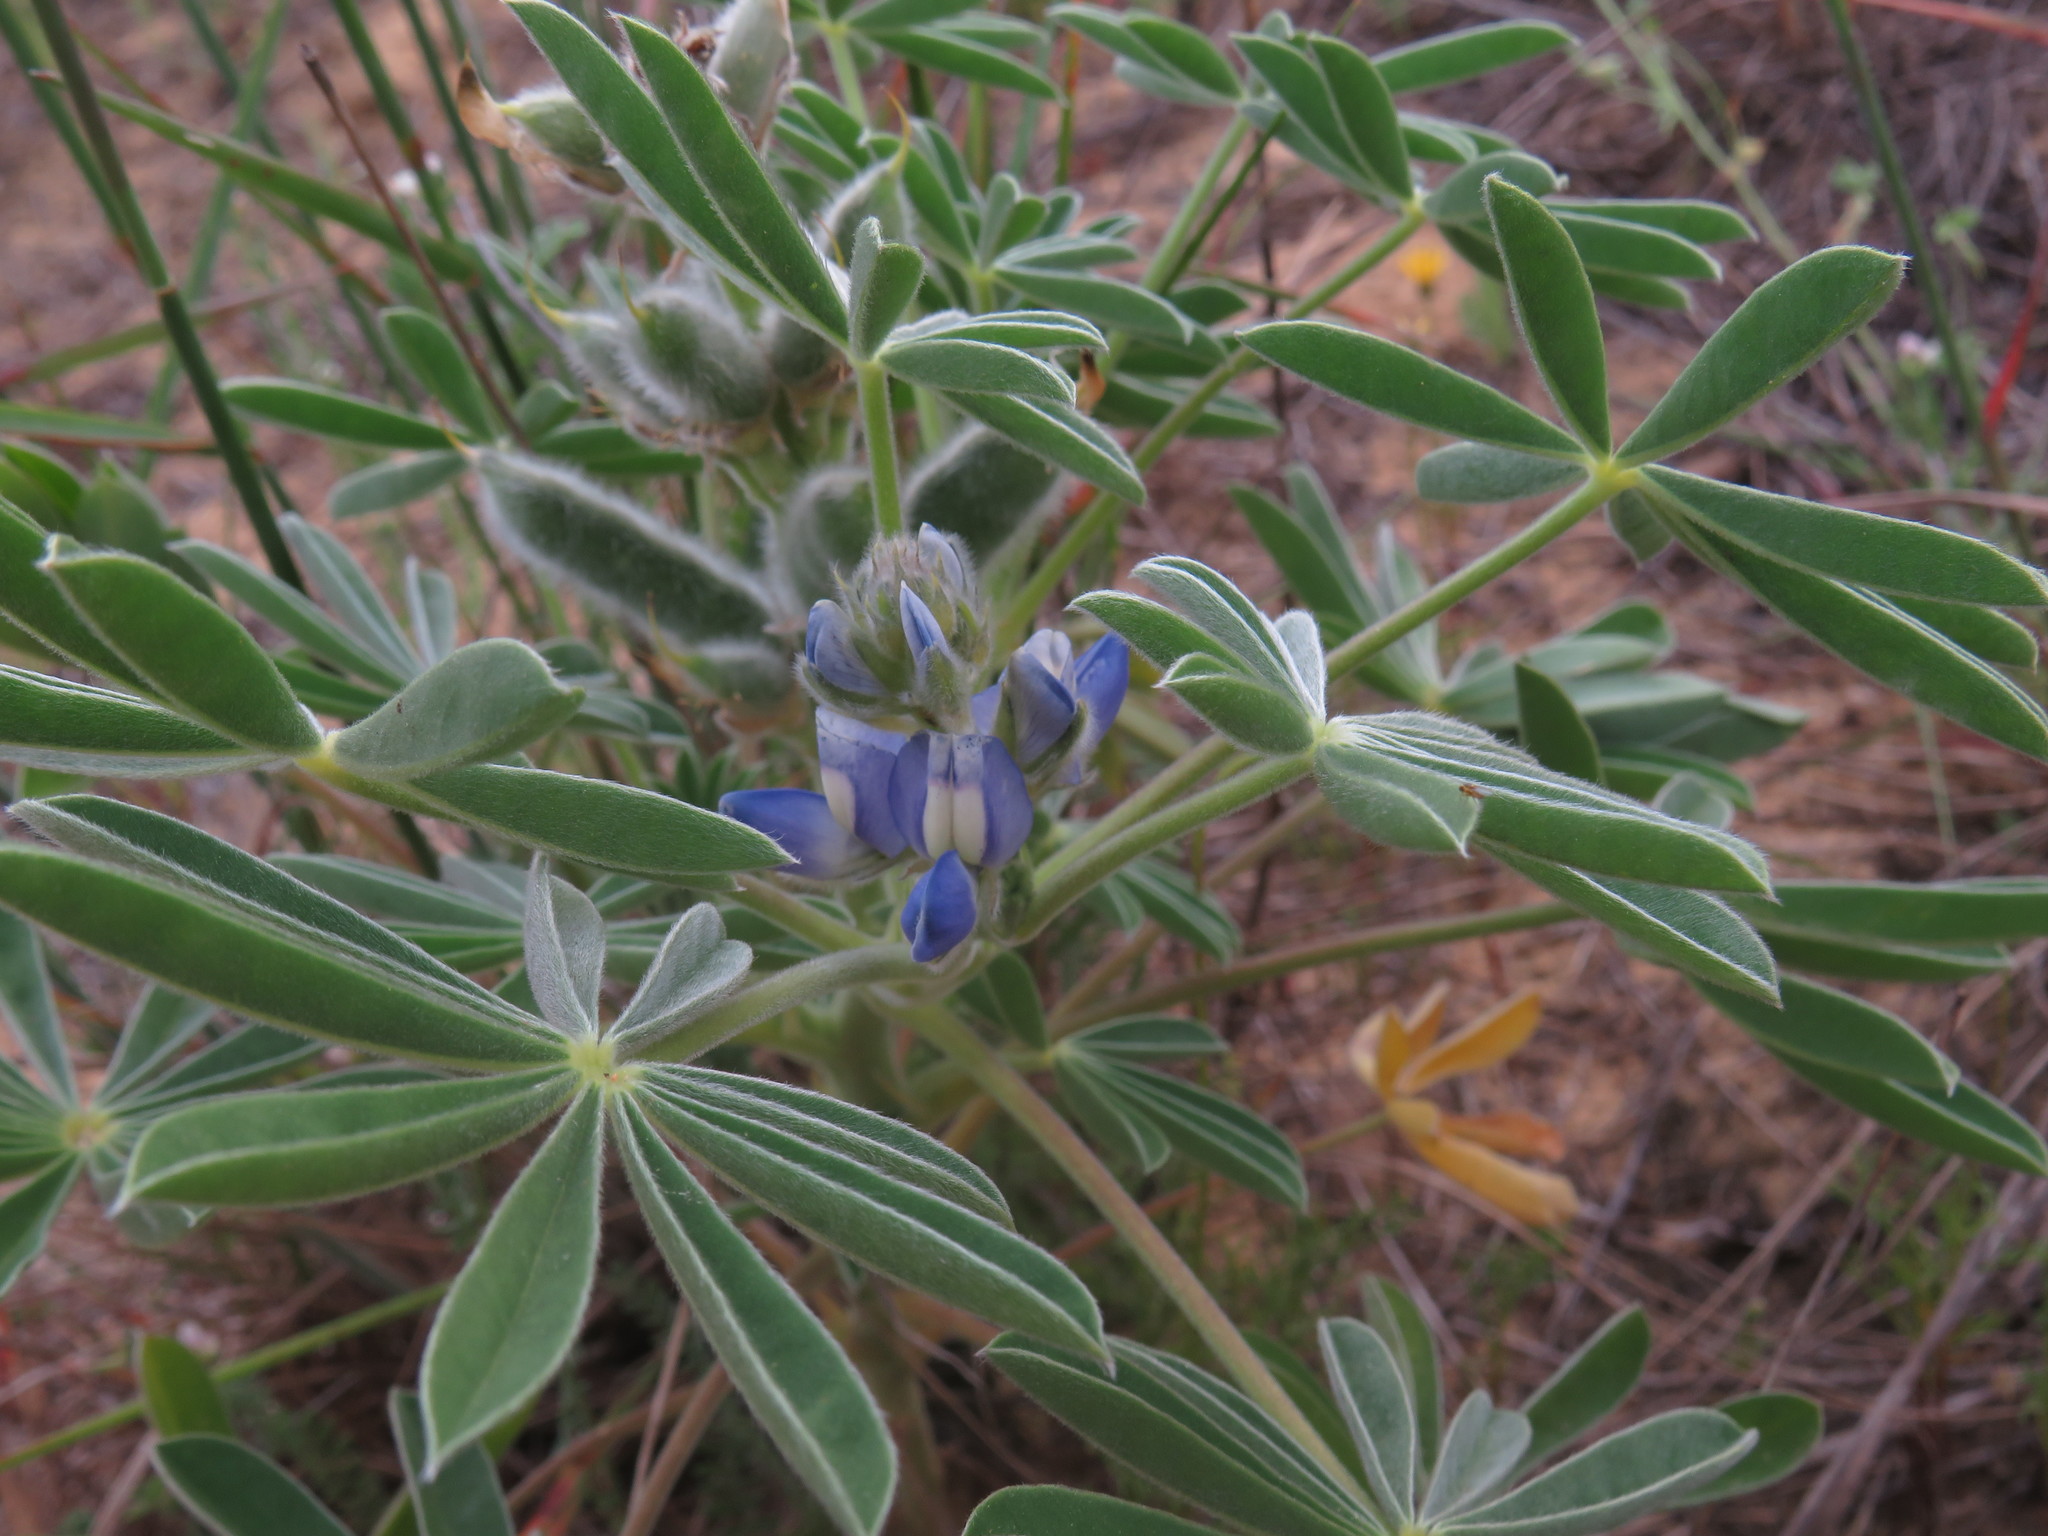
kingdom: Plantae
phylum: Tracheophyta
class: Magnoliopsida
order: Fabales
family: Fabaceae
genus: Lupinus
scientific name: Lupinus cosentinii
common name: Hairy blue lupin
